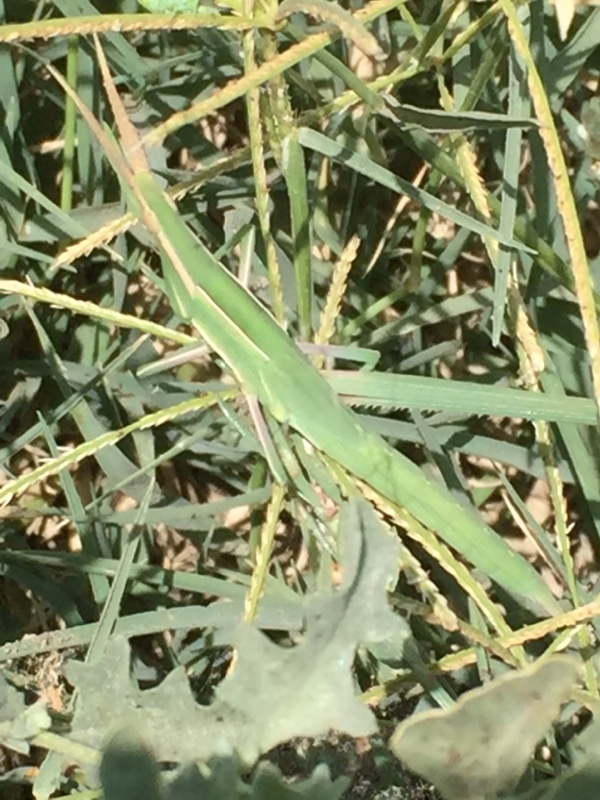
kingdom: Animalia
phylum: Arthropoda
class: Insecta
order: Orthoptera
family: Acrididae
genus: Acrida
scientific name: Acrida anatolica
